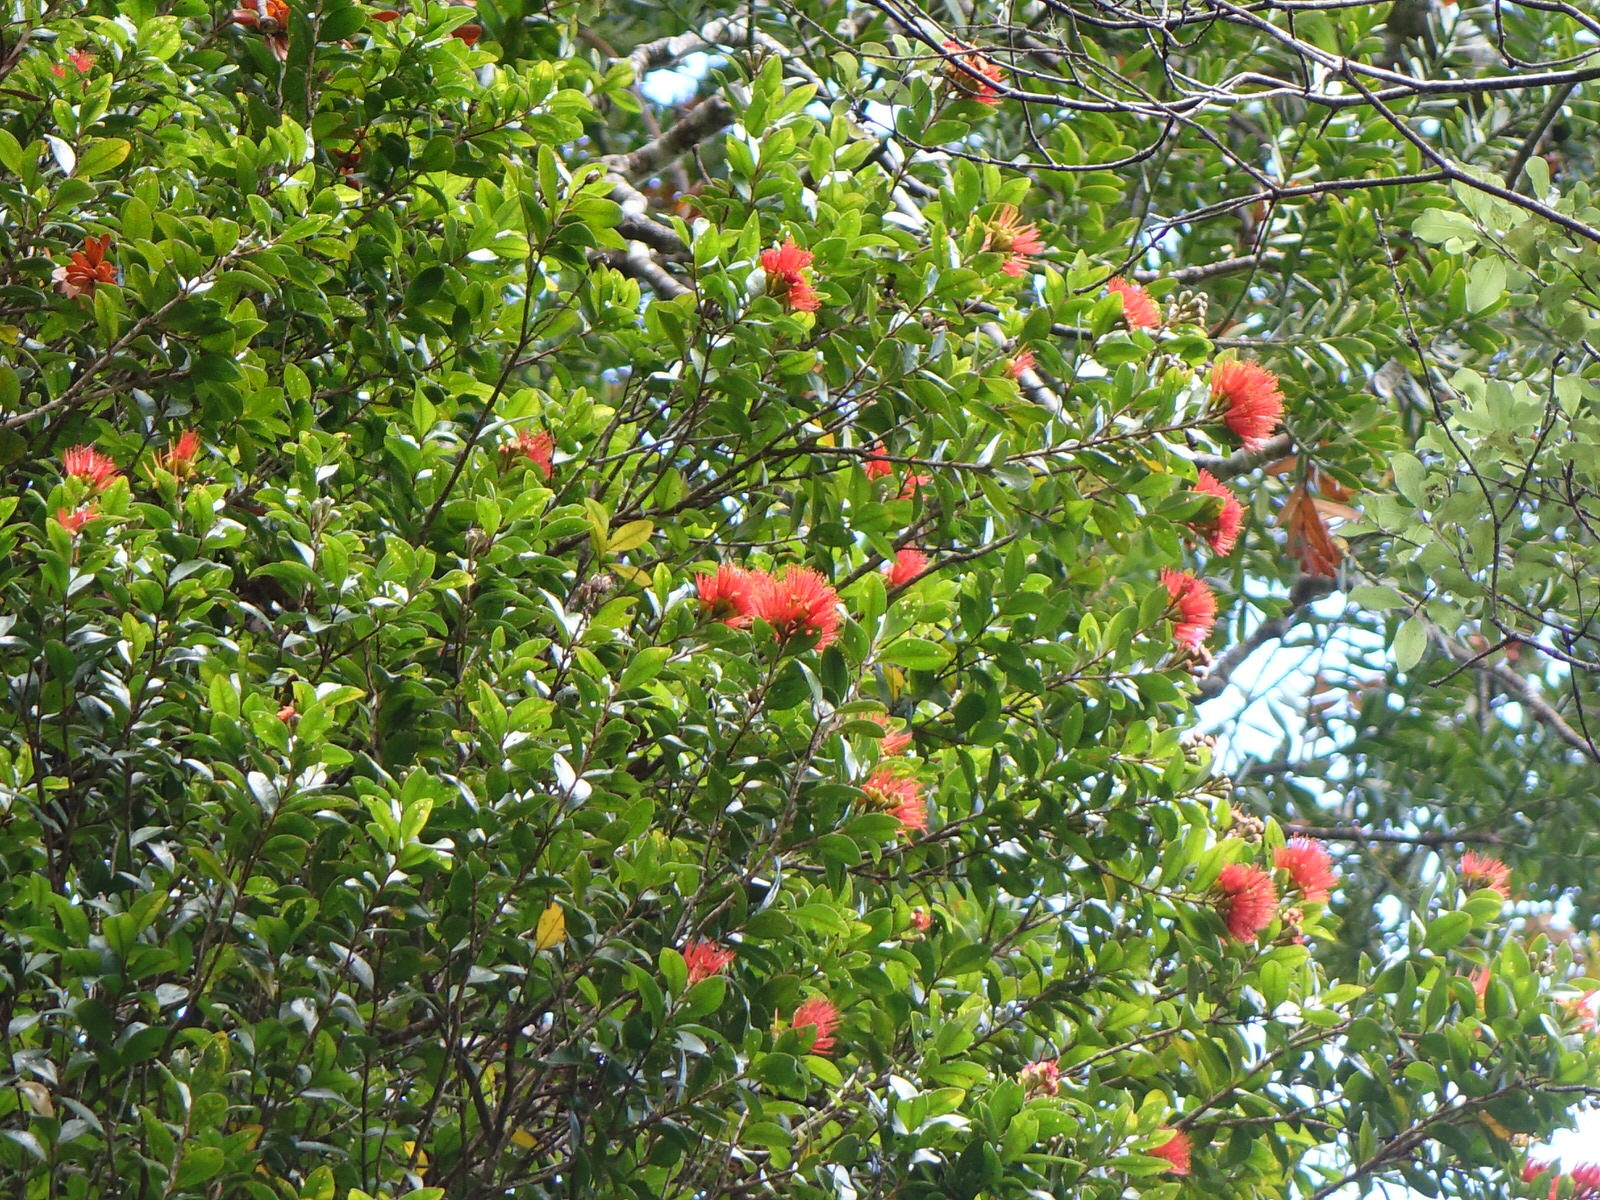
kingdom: Plantae
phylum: Tracheophyta
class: Magnoliopsida
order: Myrtales
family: Myrtaceae
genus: Metrosideros
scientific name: Metrosideros fulgens
